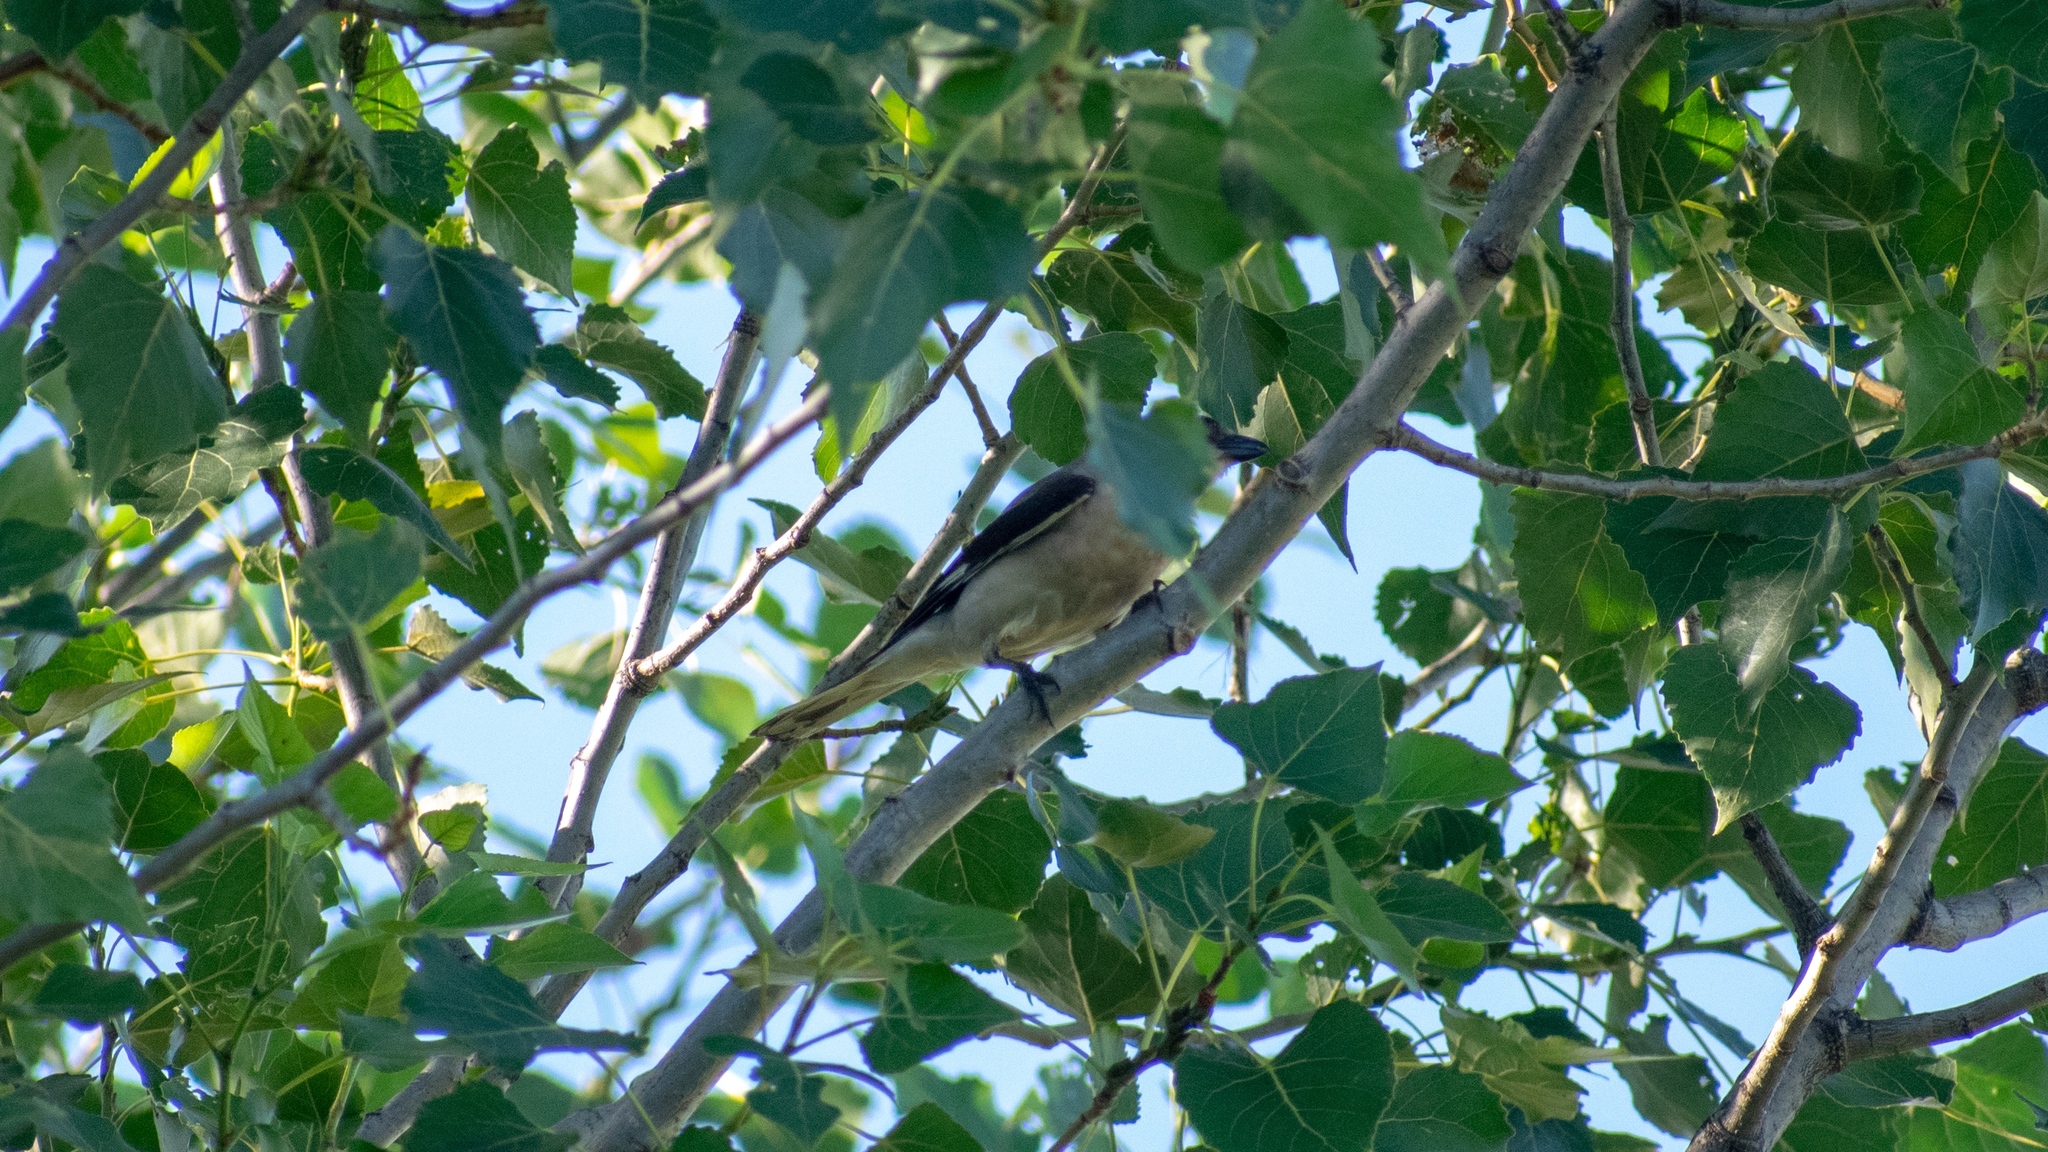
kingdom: Animalia
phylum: Chordata
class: Aves
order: Passeriformes
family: Laniidae
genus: Lanius
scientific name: Lanius minor
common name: Lesser grey shrike
